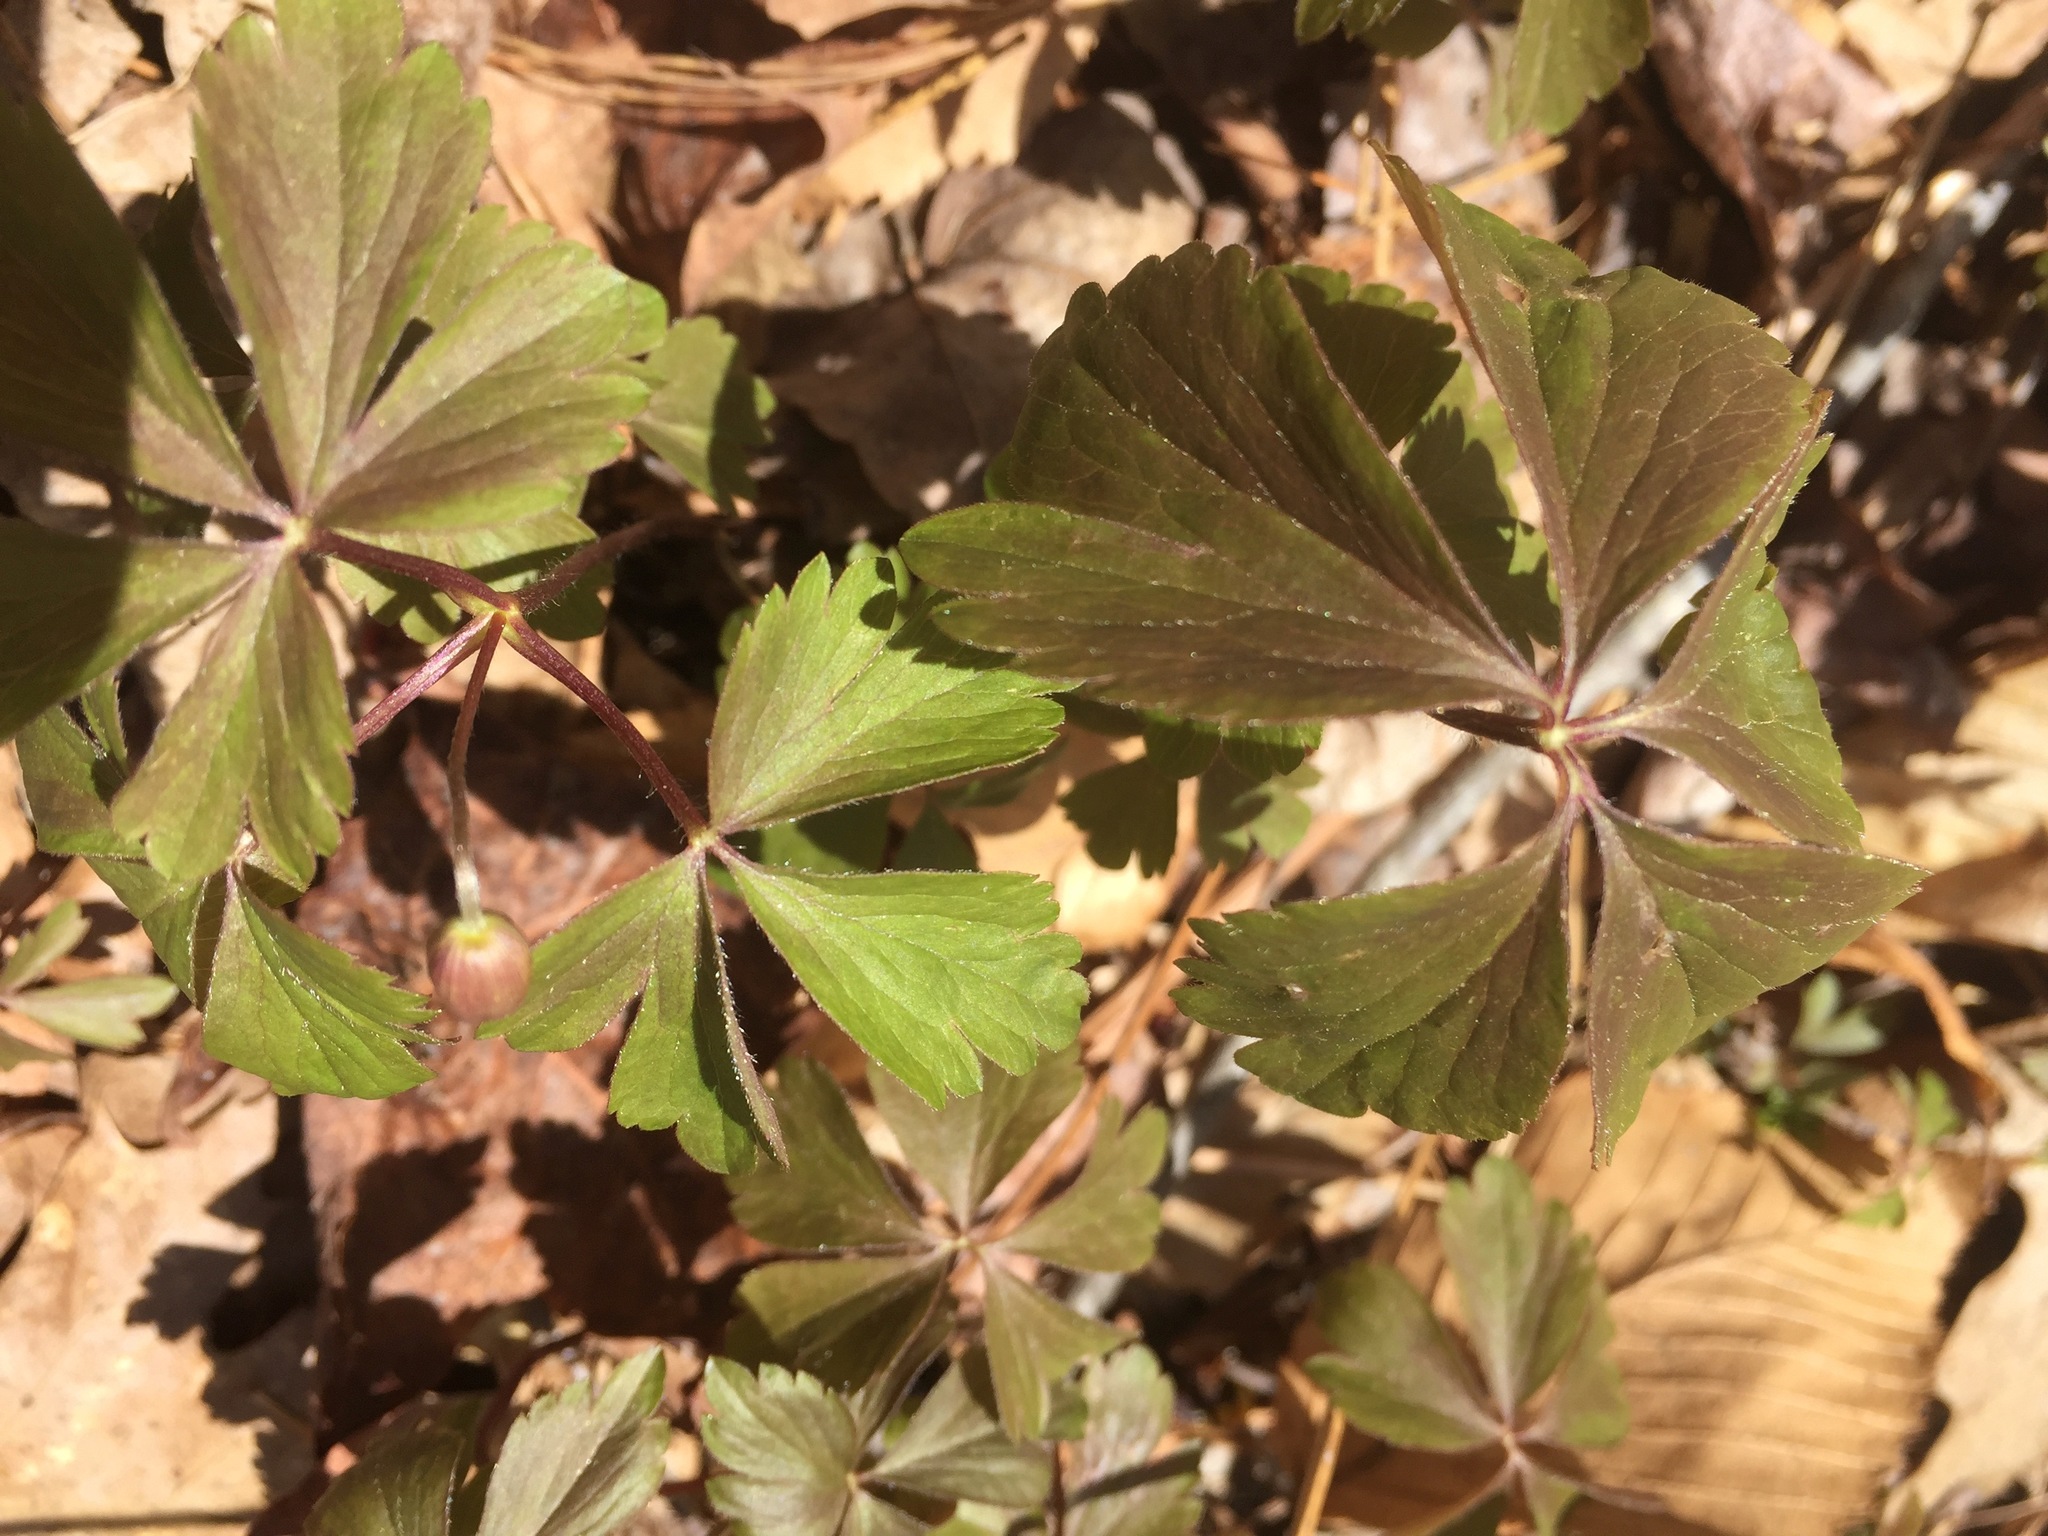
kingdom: Plantae
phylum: Tracheophyta
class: Magnoliopsida
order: Ranunculales
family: Ranunculaceae
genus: Anemone
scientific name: Anemone quinquefolia
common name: Wood anemone
